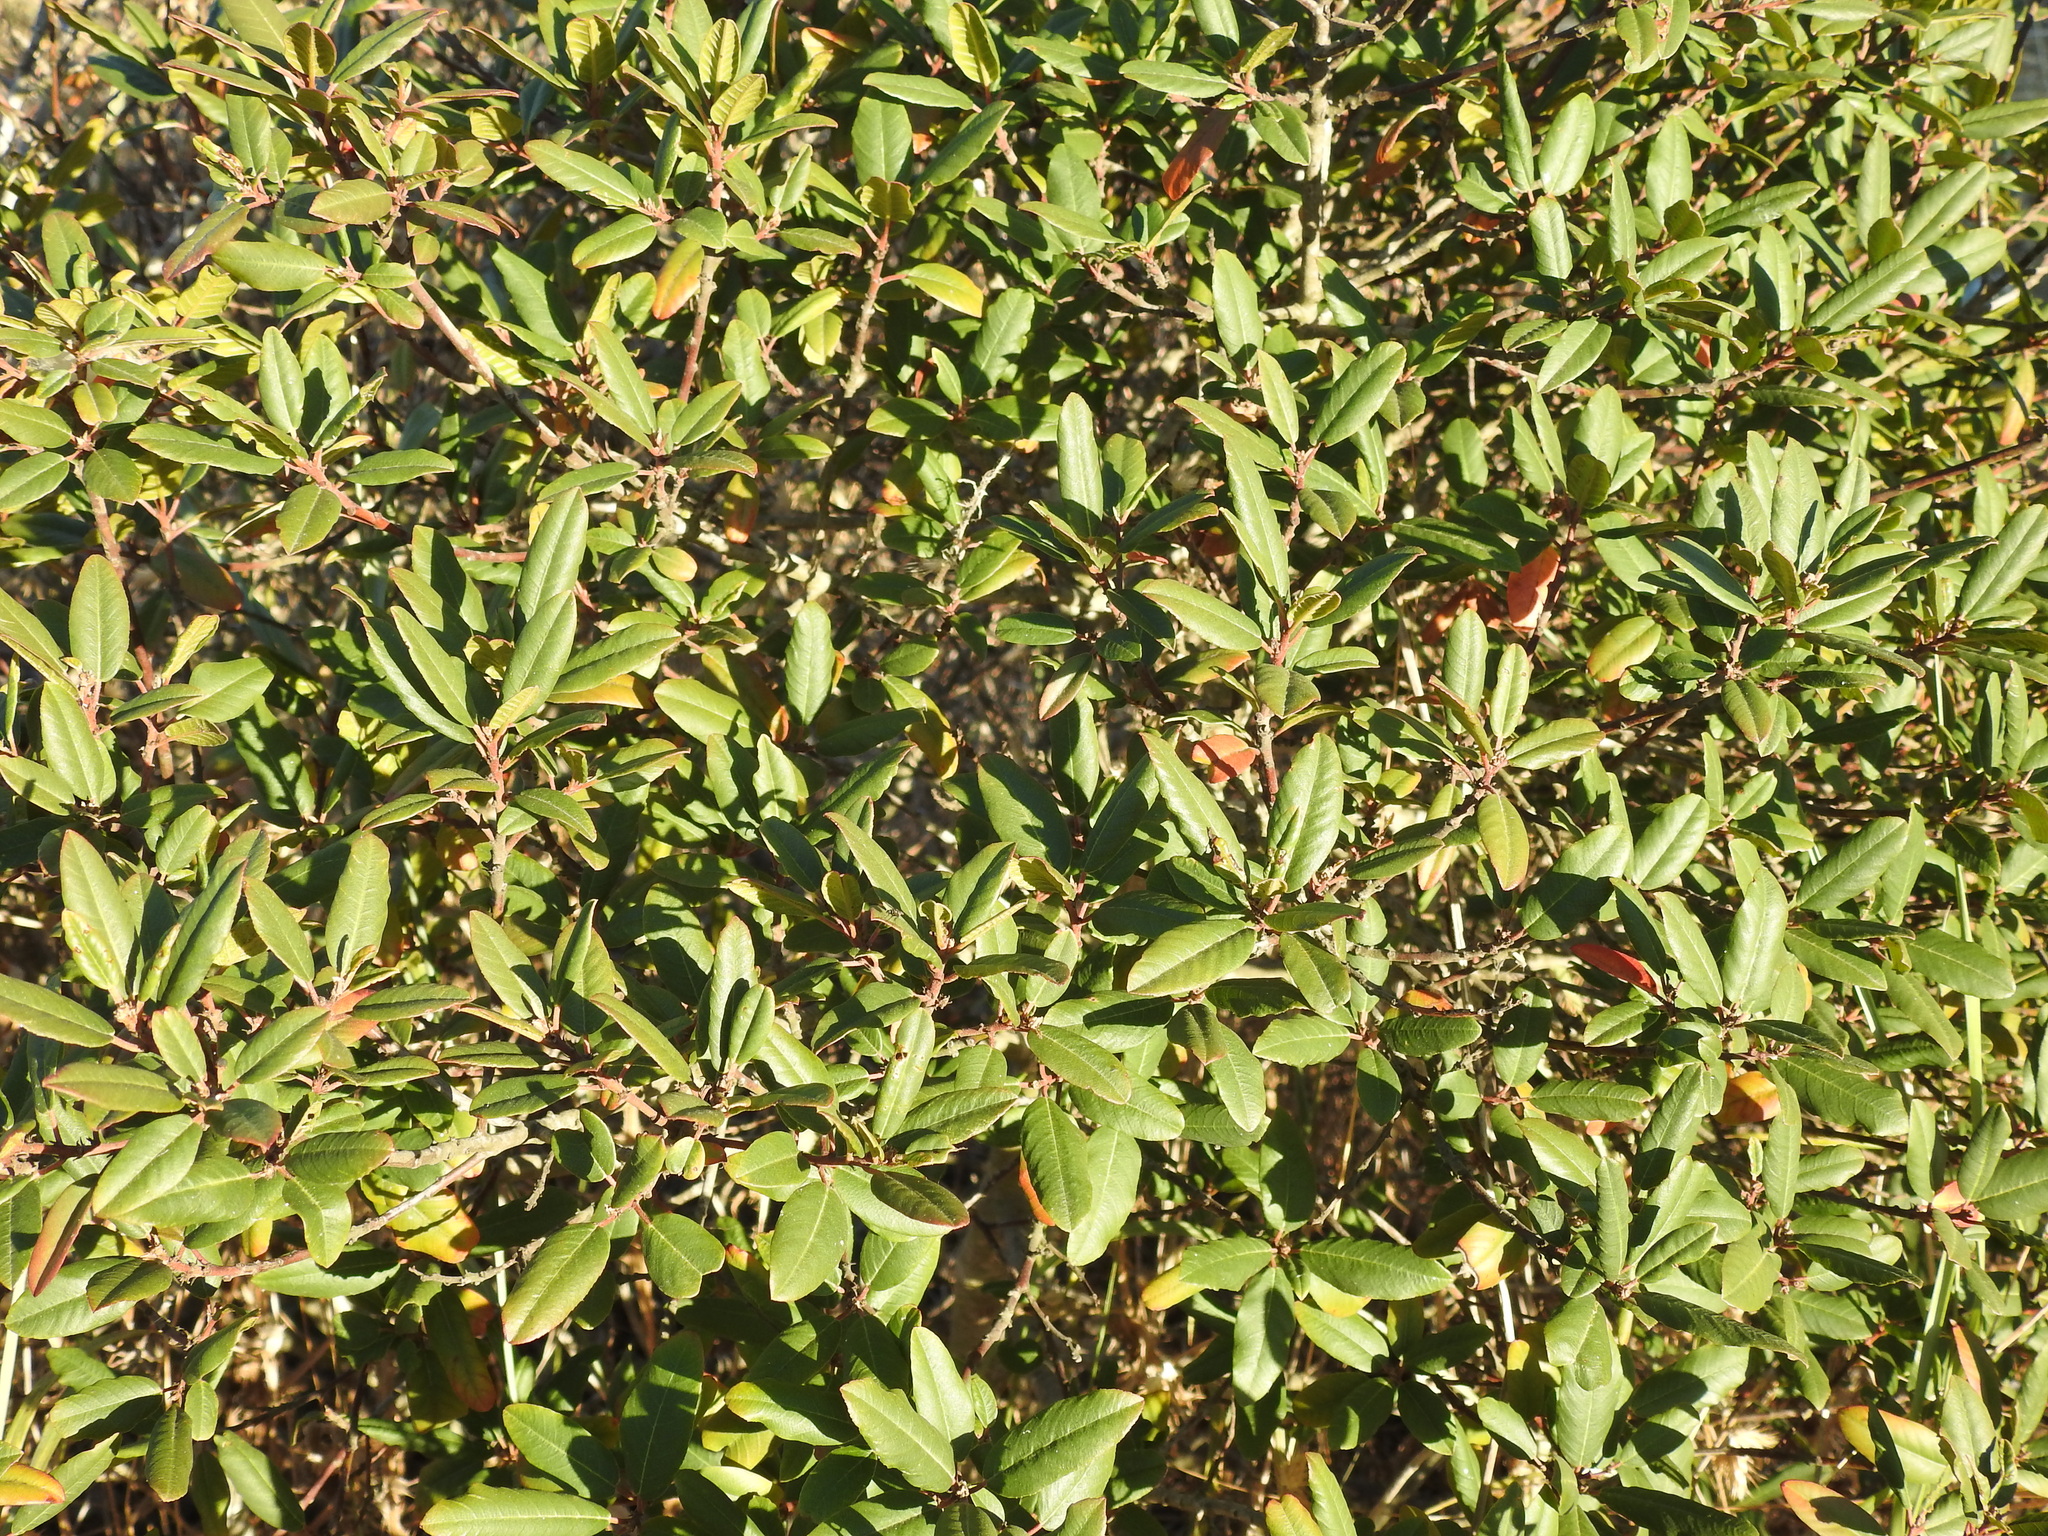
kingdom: Plantae
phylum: Tracheophyta
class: Magnoliopsida
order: Rosales
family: Rhamnaceae
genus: Frangula
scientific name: Frangula californica
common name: California buckthorn
